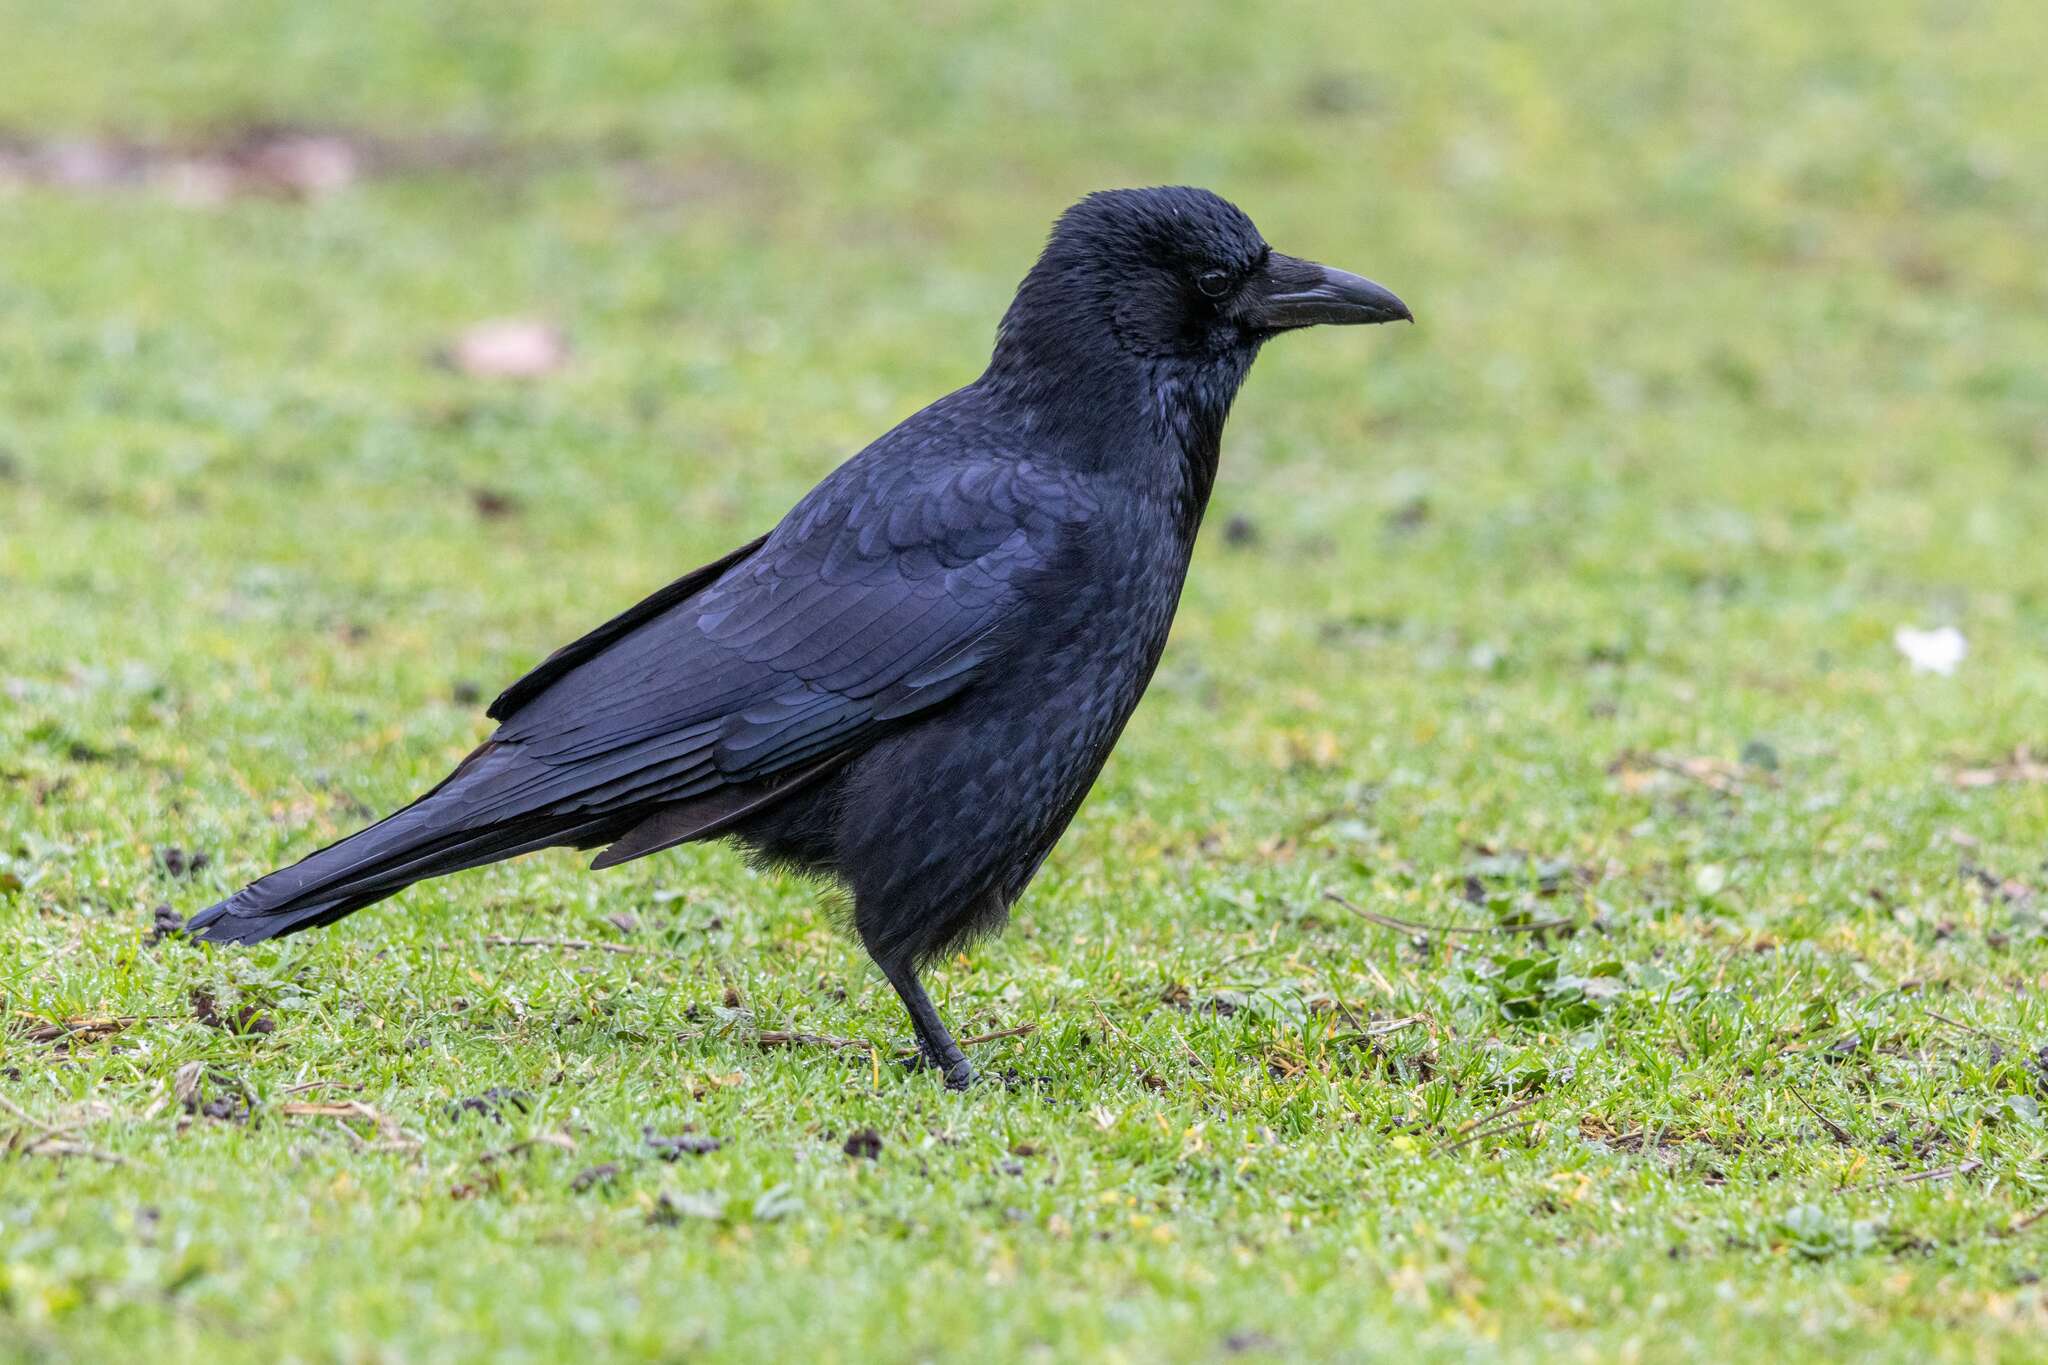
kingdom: Animalia
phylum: Chordata
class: Aves
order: Passeriformes
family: Corvidae
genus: Corvus
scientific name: Corvus corone
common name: Carrion crow
